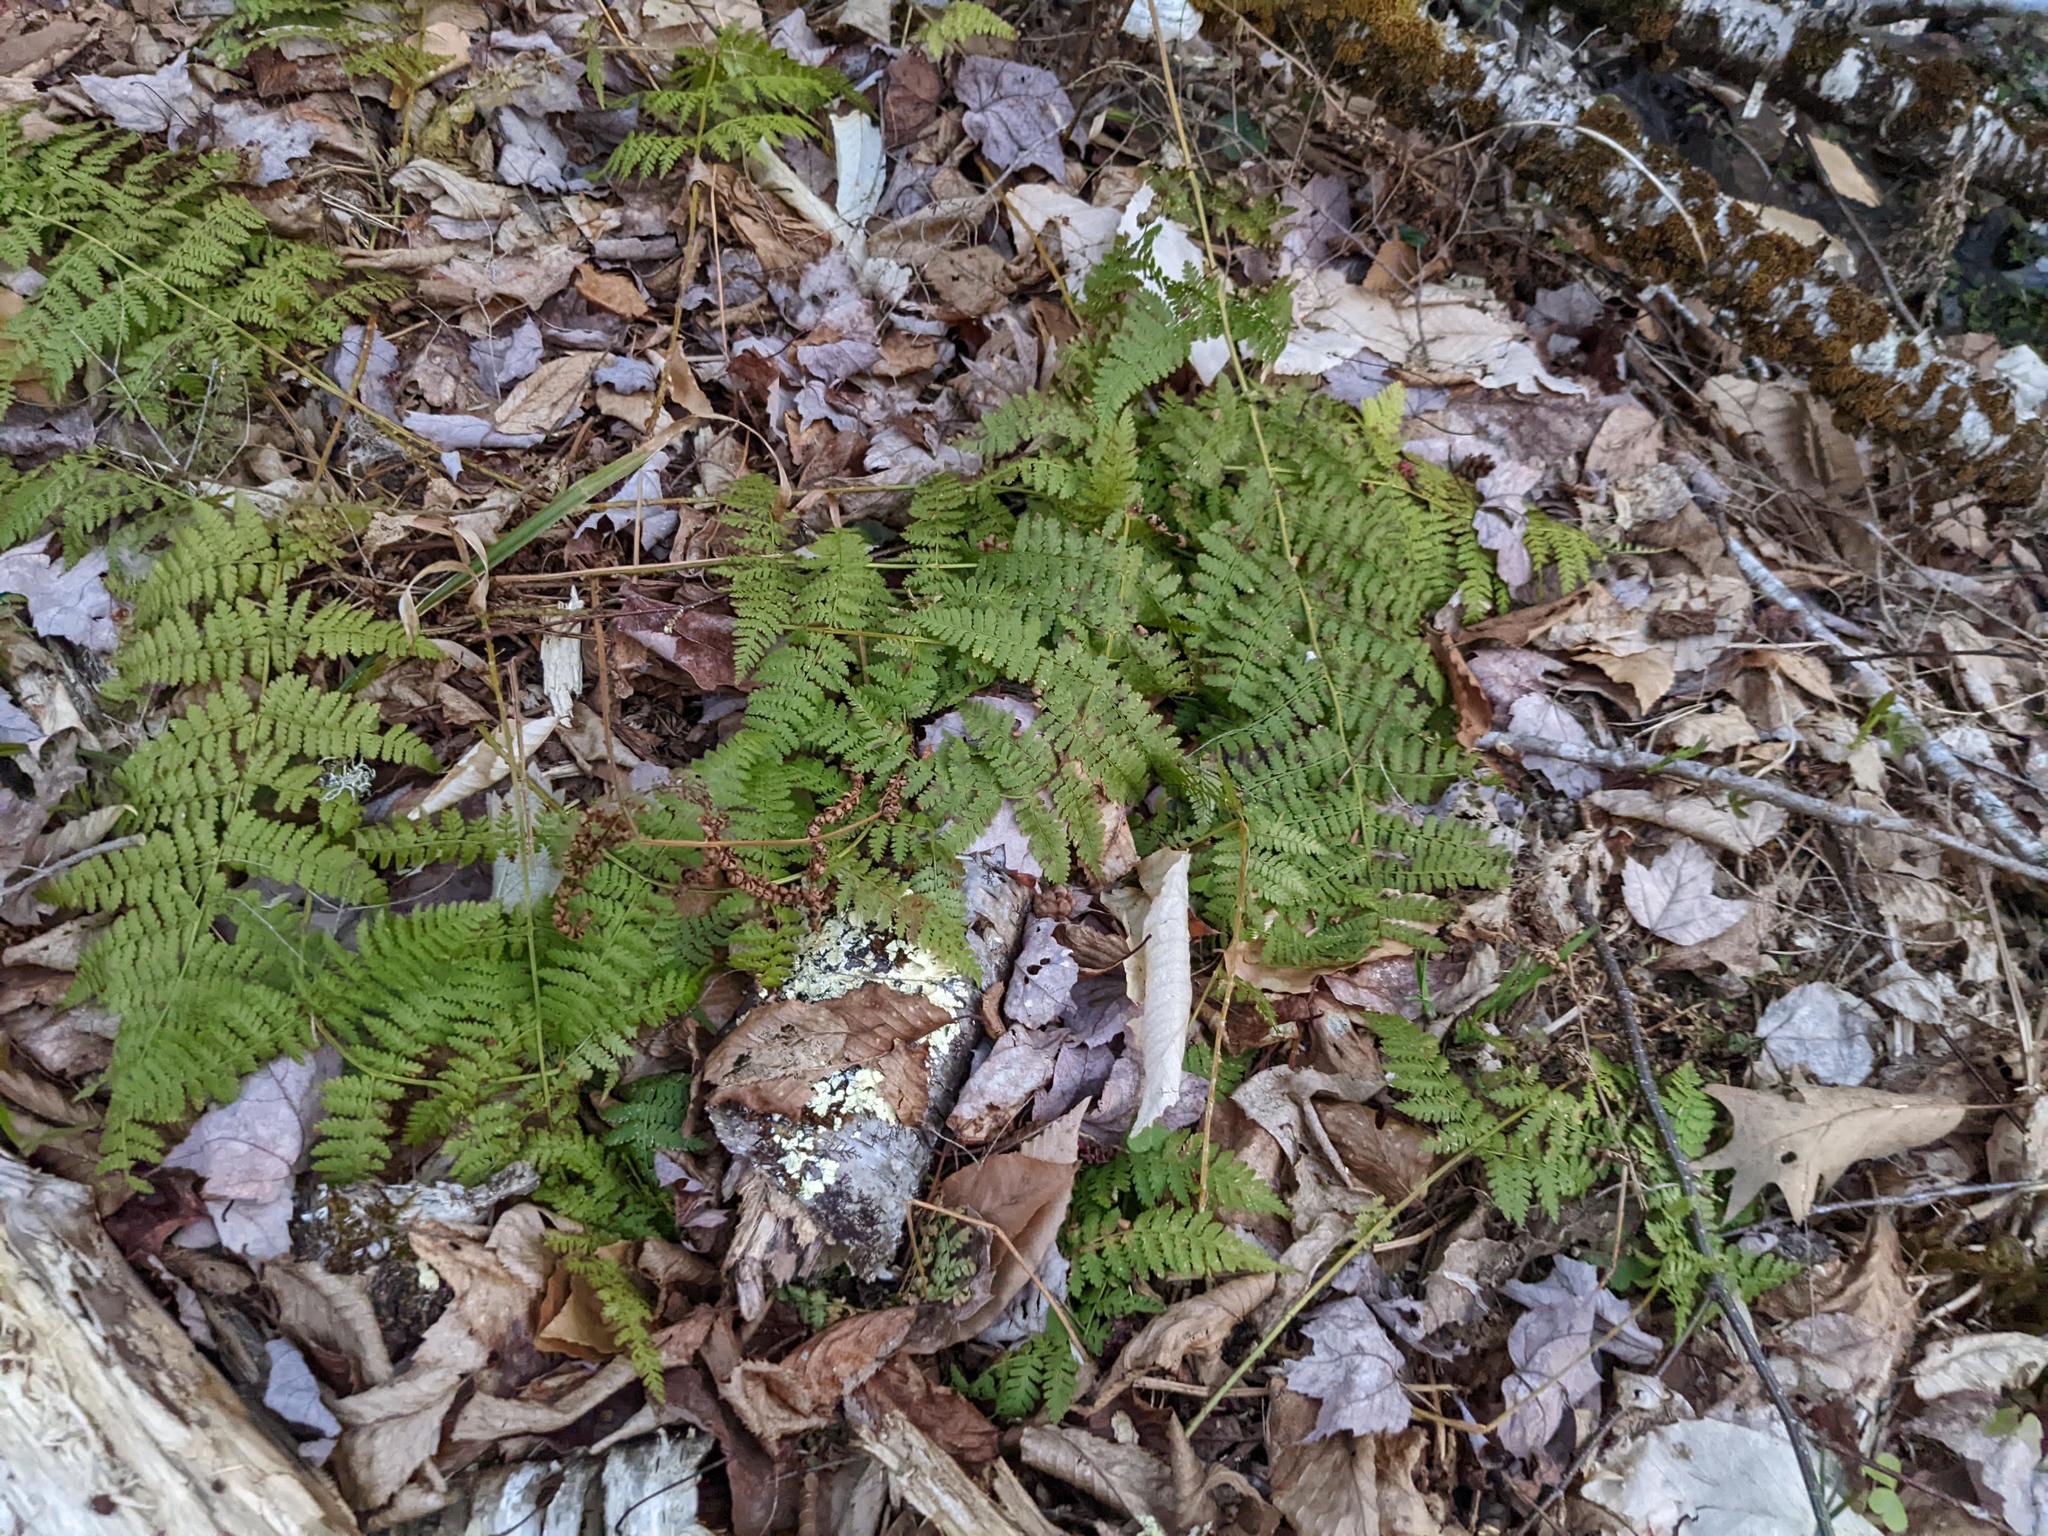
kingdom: Plantae
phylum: Tracheophyta
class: Polypodiopsida
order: Polypodiales
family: Dryopteridaceae
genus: Dryopteris
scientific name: Dryopteris intermedia
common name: Evergreen wood fern
